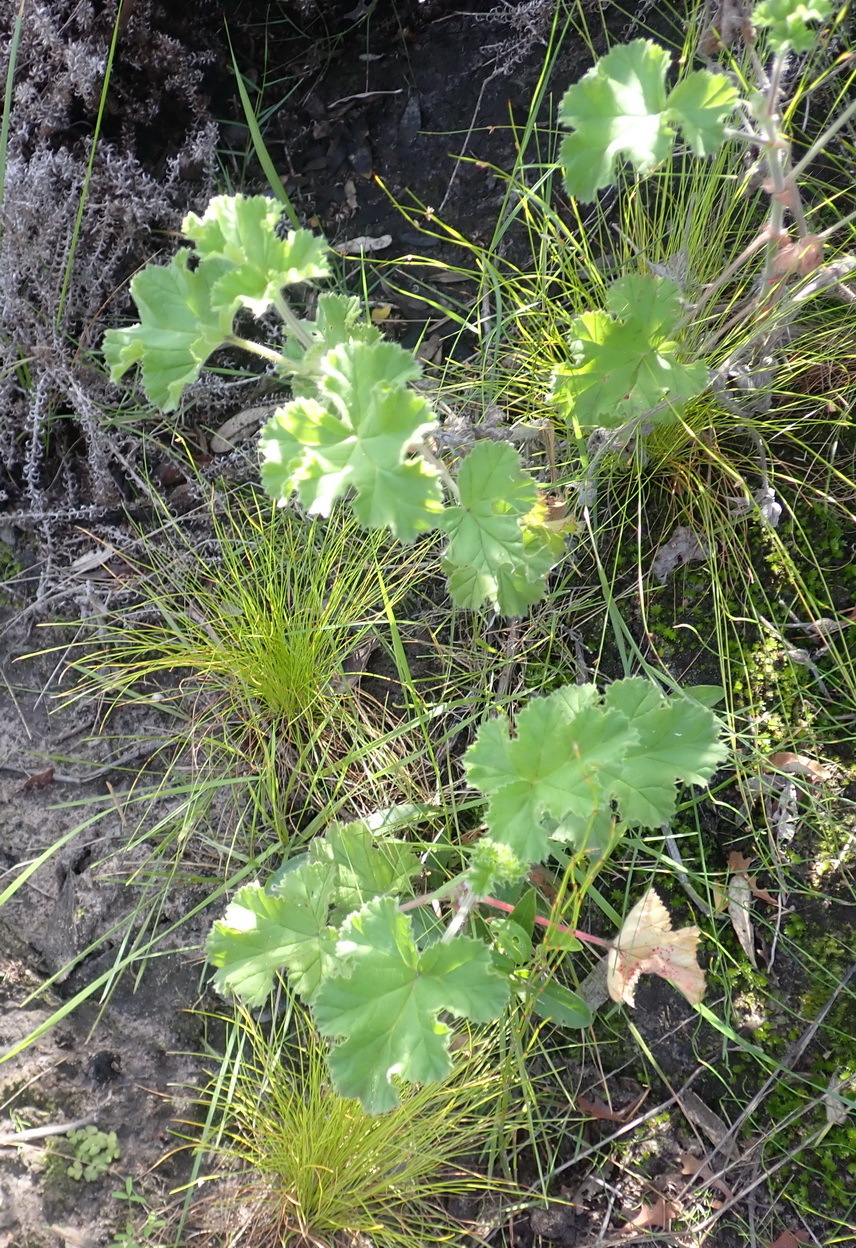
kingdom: Plantae
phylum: Tracheophyta
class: Magnoliopsida
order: Geraniales
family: Geraniaceae
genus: Pelargonium
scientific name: Pelargonium capitatum
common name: Rose scented geranium
